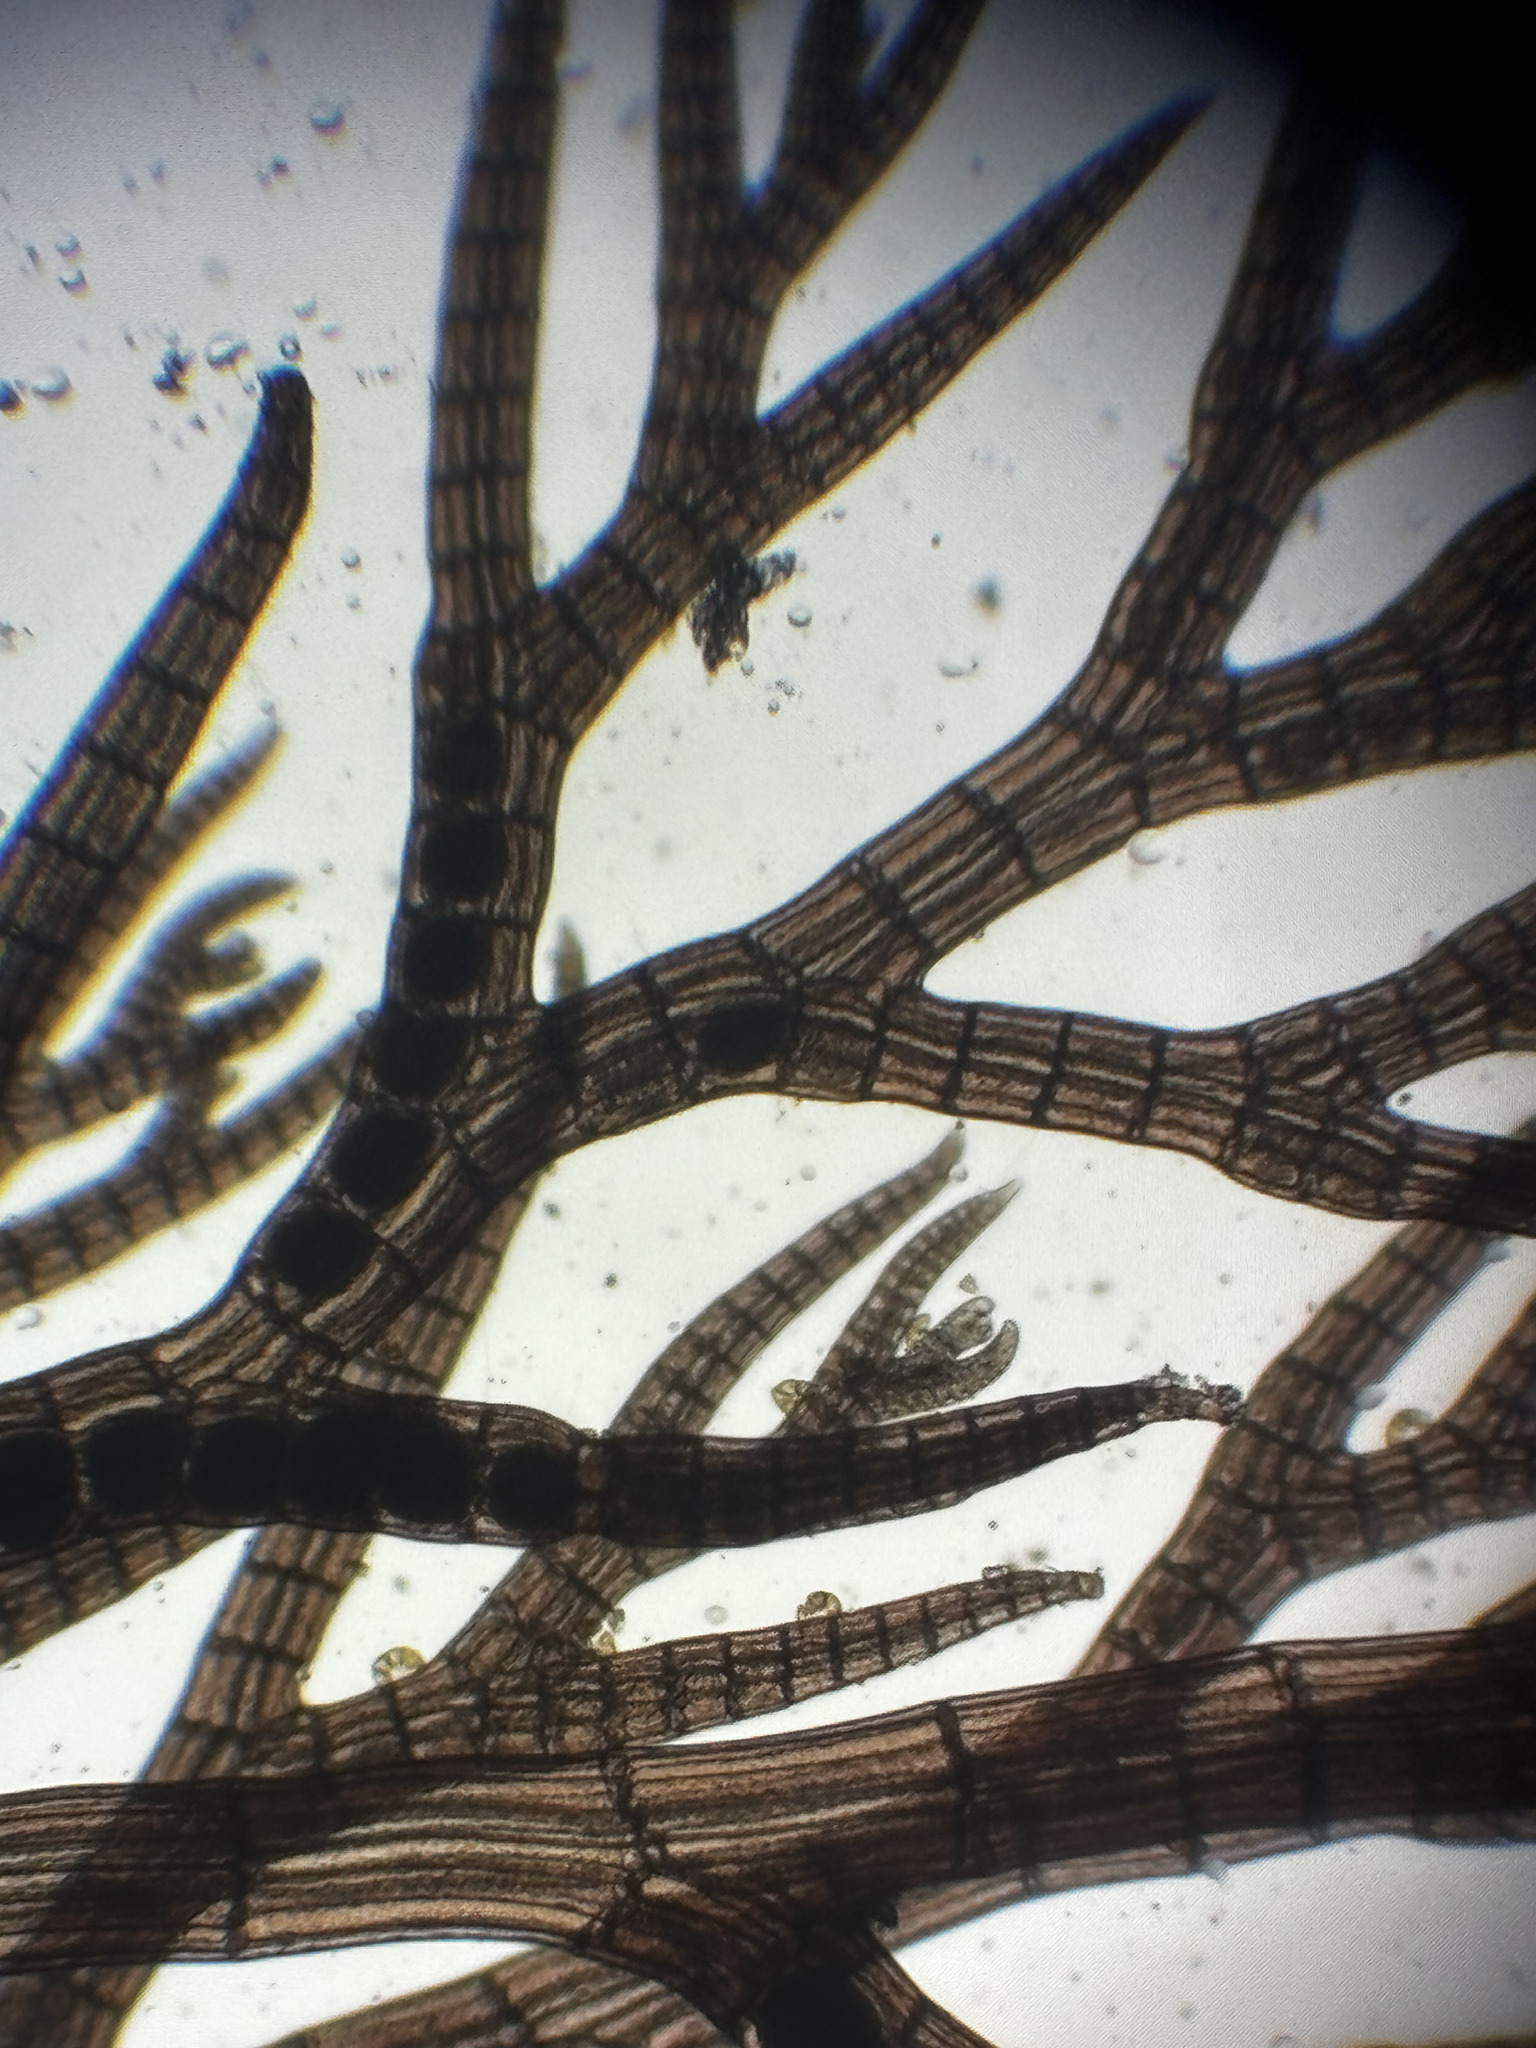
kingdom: Plantae
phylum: Rhodophyta
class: Florideophyceae
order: Ceramiales
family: Rhodomelaceae
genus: Savoiea
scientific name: Savoiea robusta
